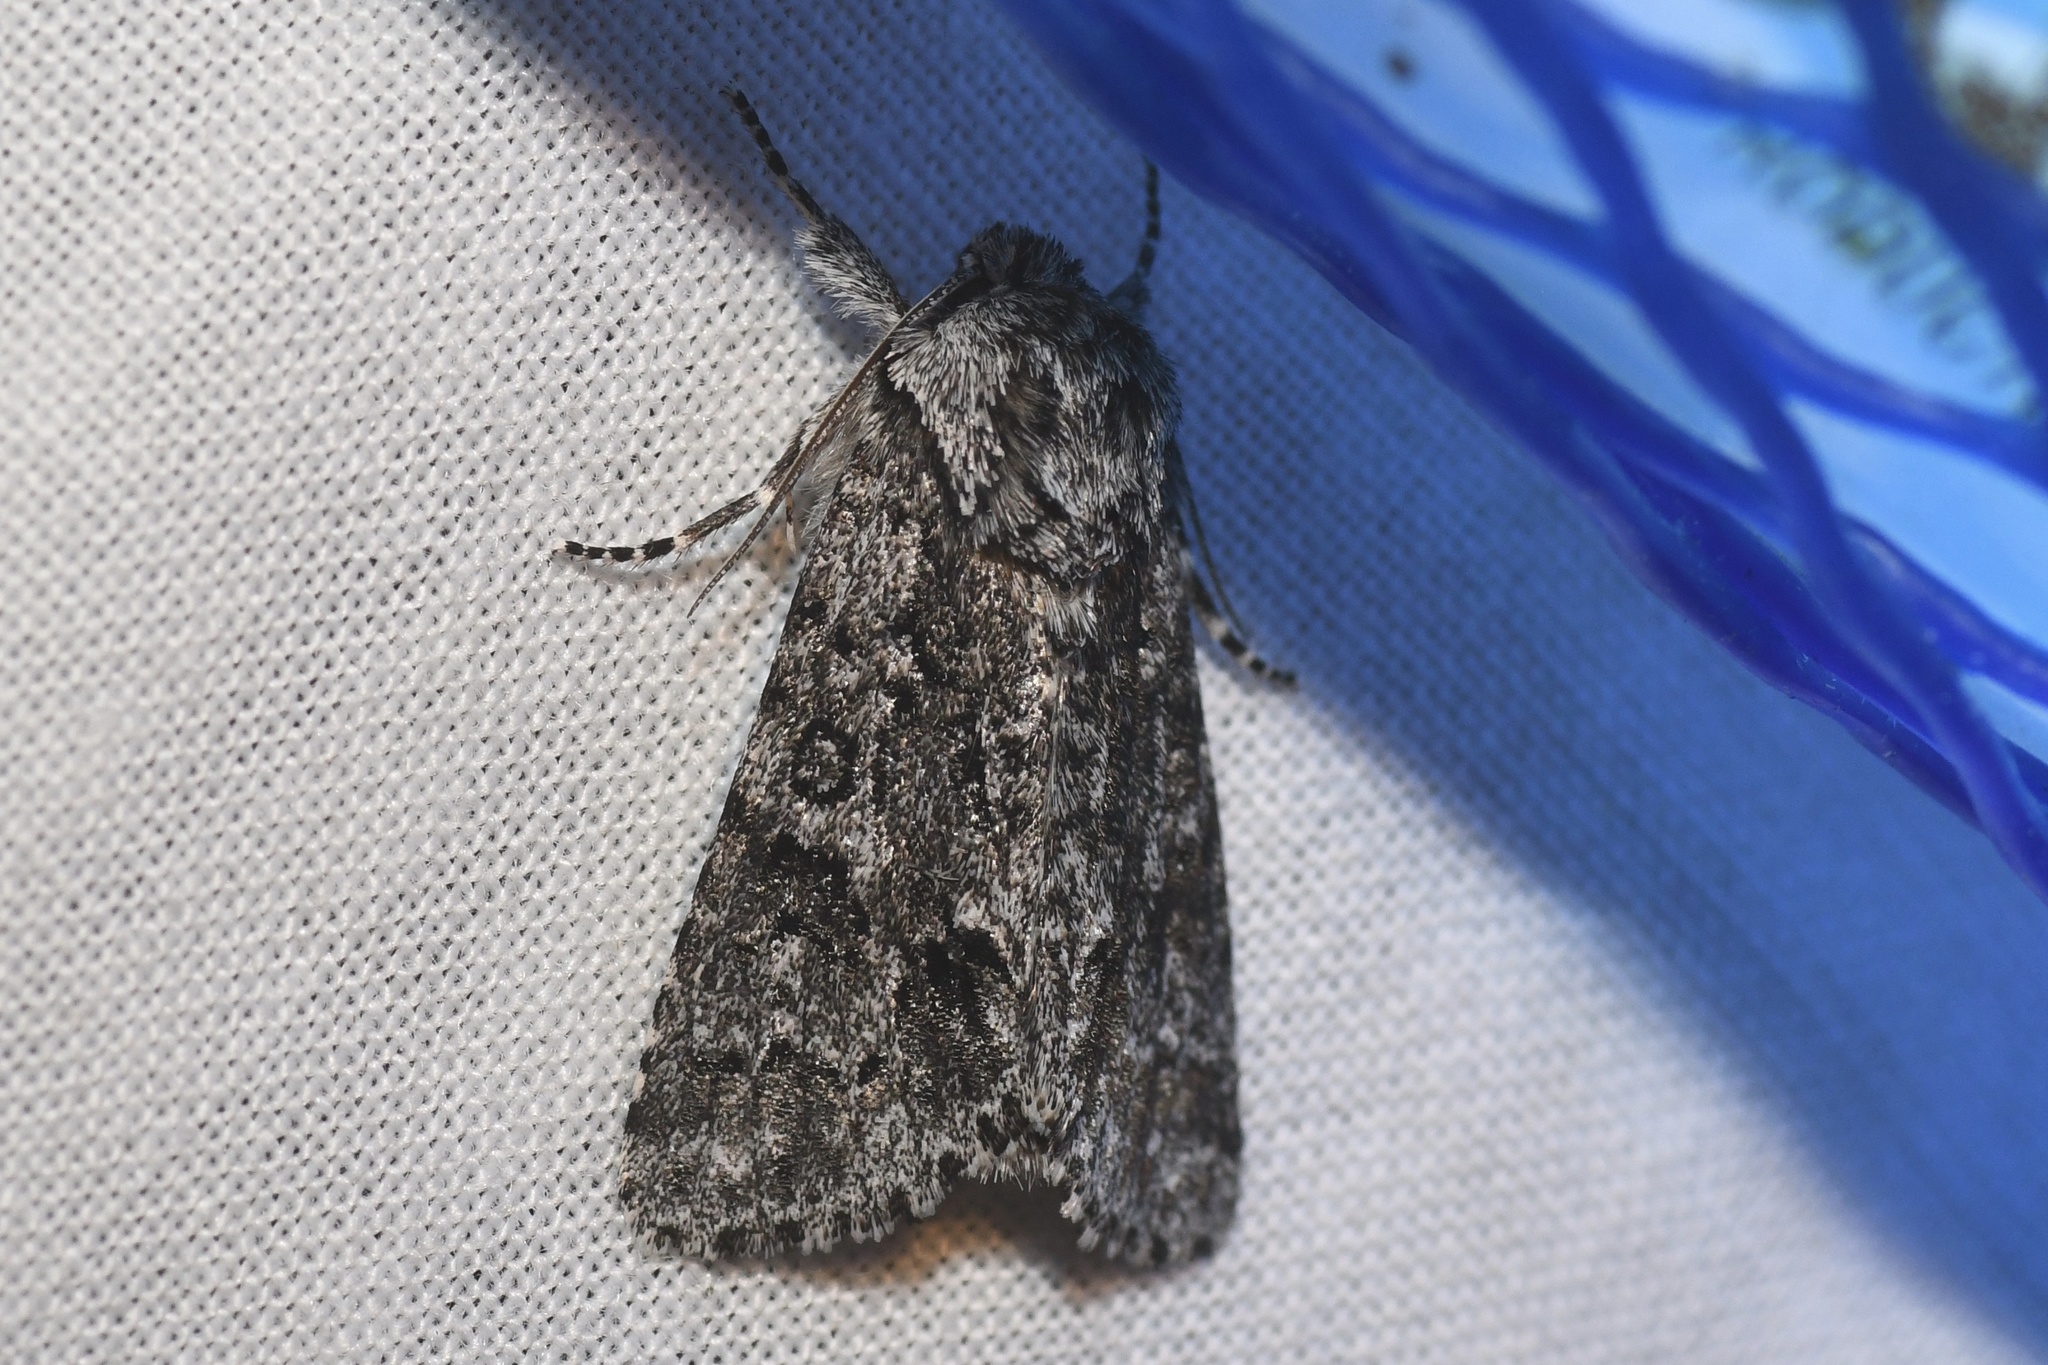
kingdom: Animalia
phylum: Arthropoda
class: Insecta
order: Lepidoptera
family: Noctuidae
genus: Acronicta
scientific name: Acronicta impressa
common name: Impressed dagger
